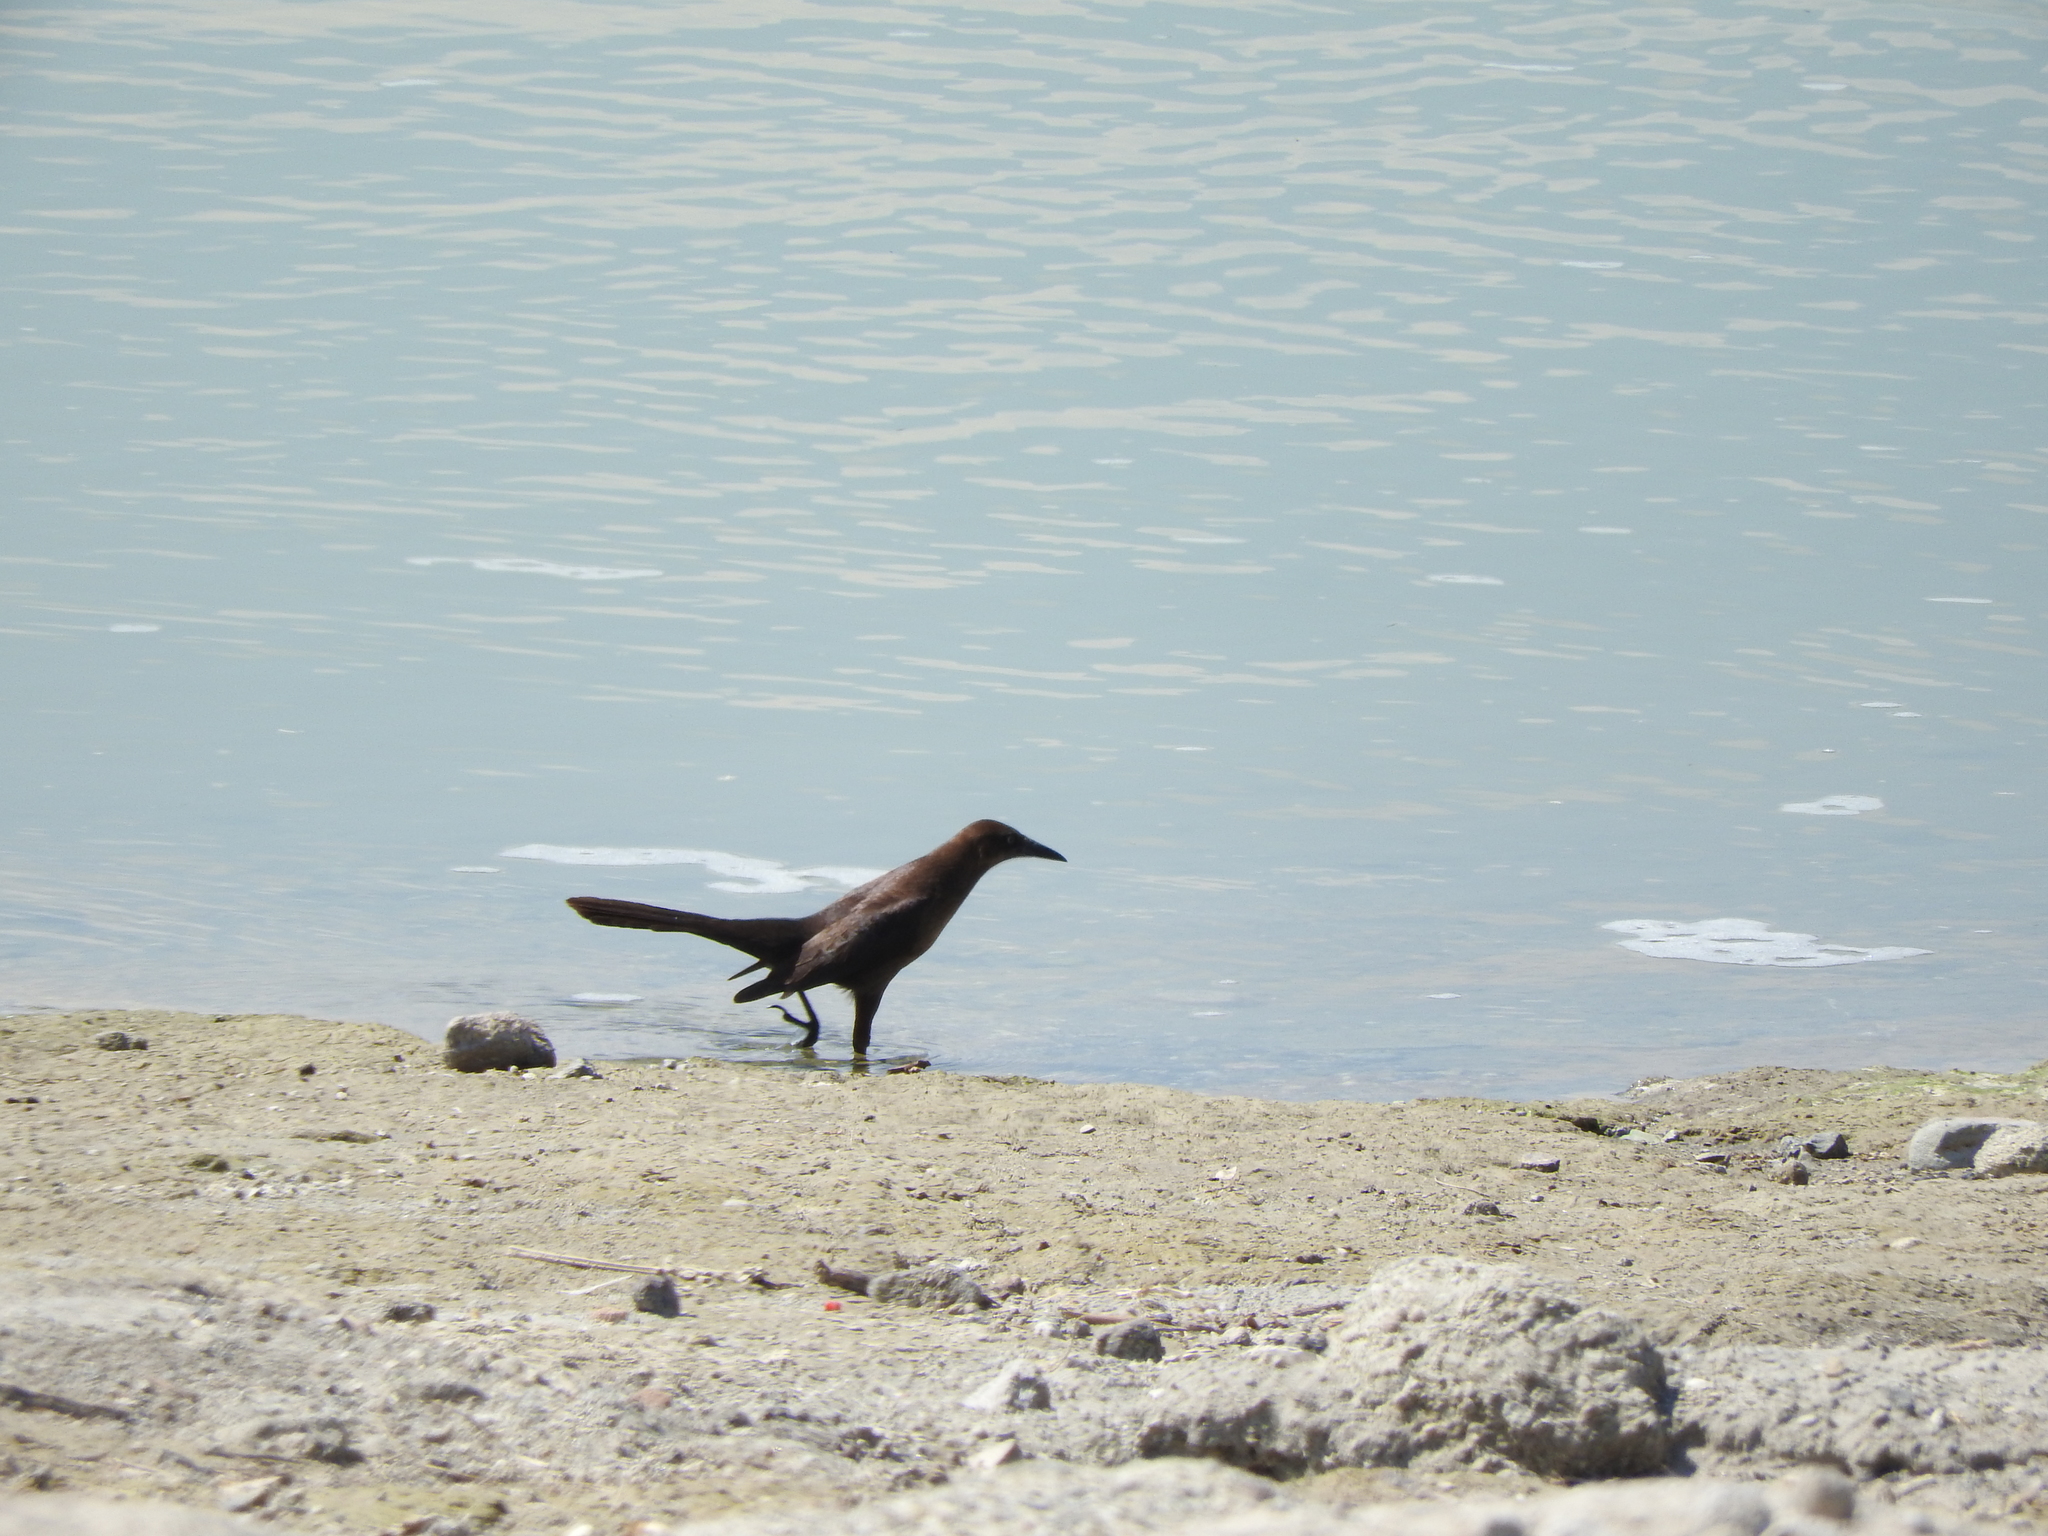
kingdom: Animalia
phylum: Chordata
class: Aves
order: Passeriformes
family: Icteridae
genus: Quiscalus
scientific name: Quiscalus mexicanus
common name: Great-tailed grackle
